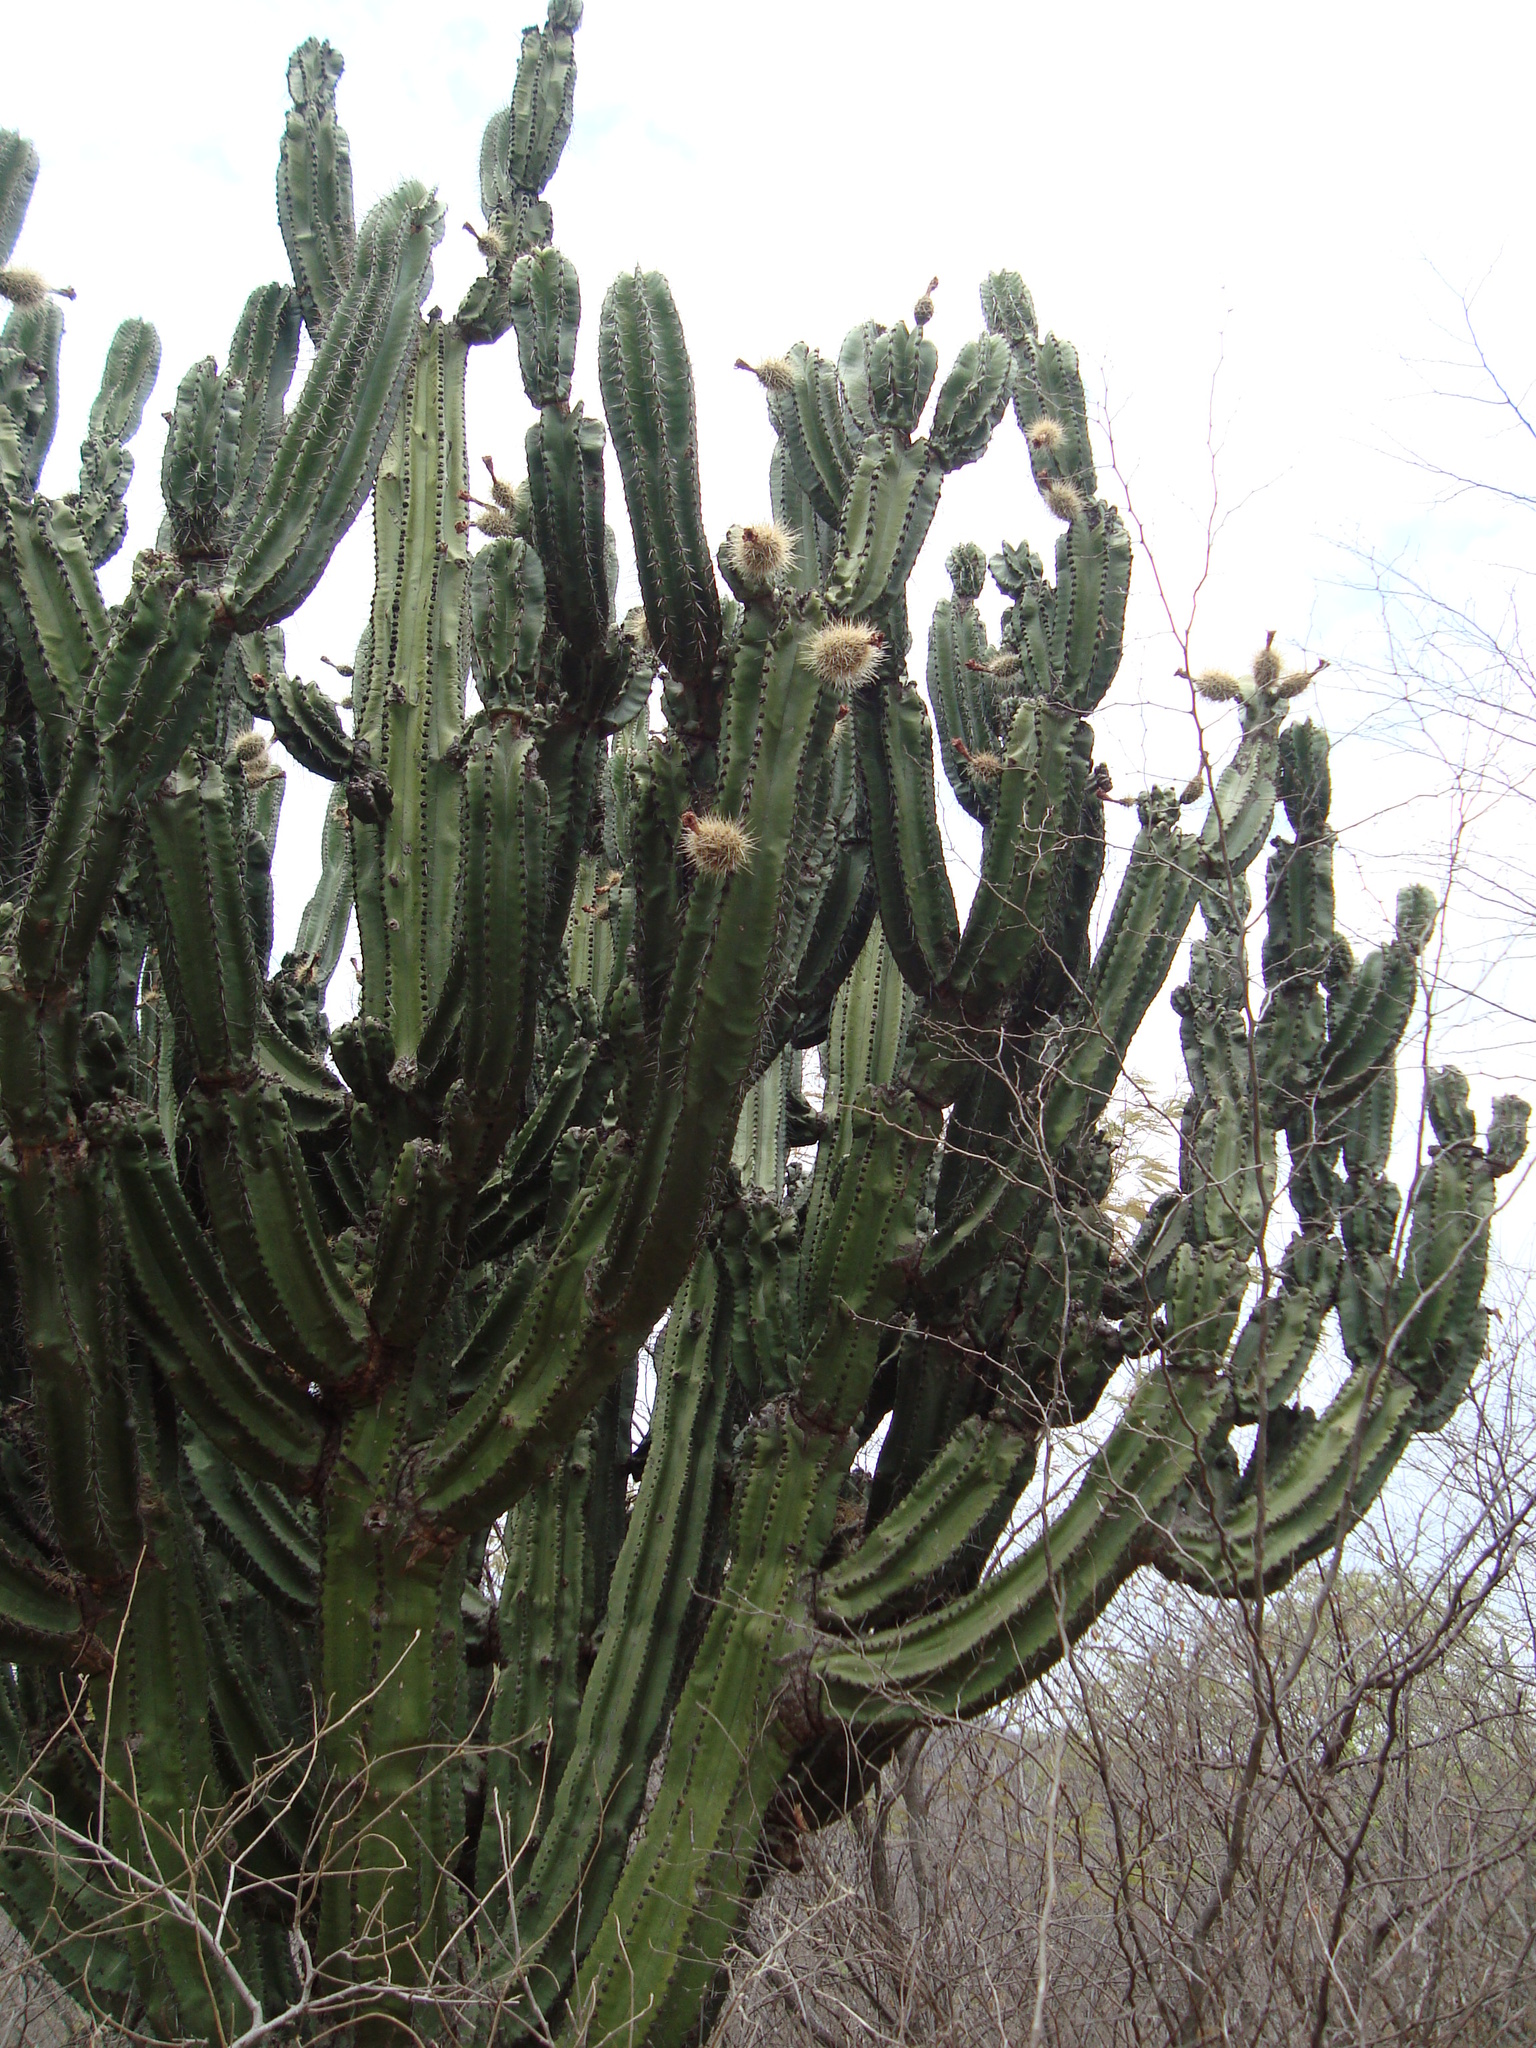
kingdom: Plantae
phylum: Tracheophyta
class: Magnoliopsida
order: Caryophyllales
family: Cactaceae
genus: Stenocereus
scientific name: Stenocereus montanus
